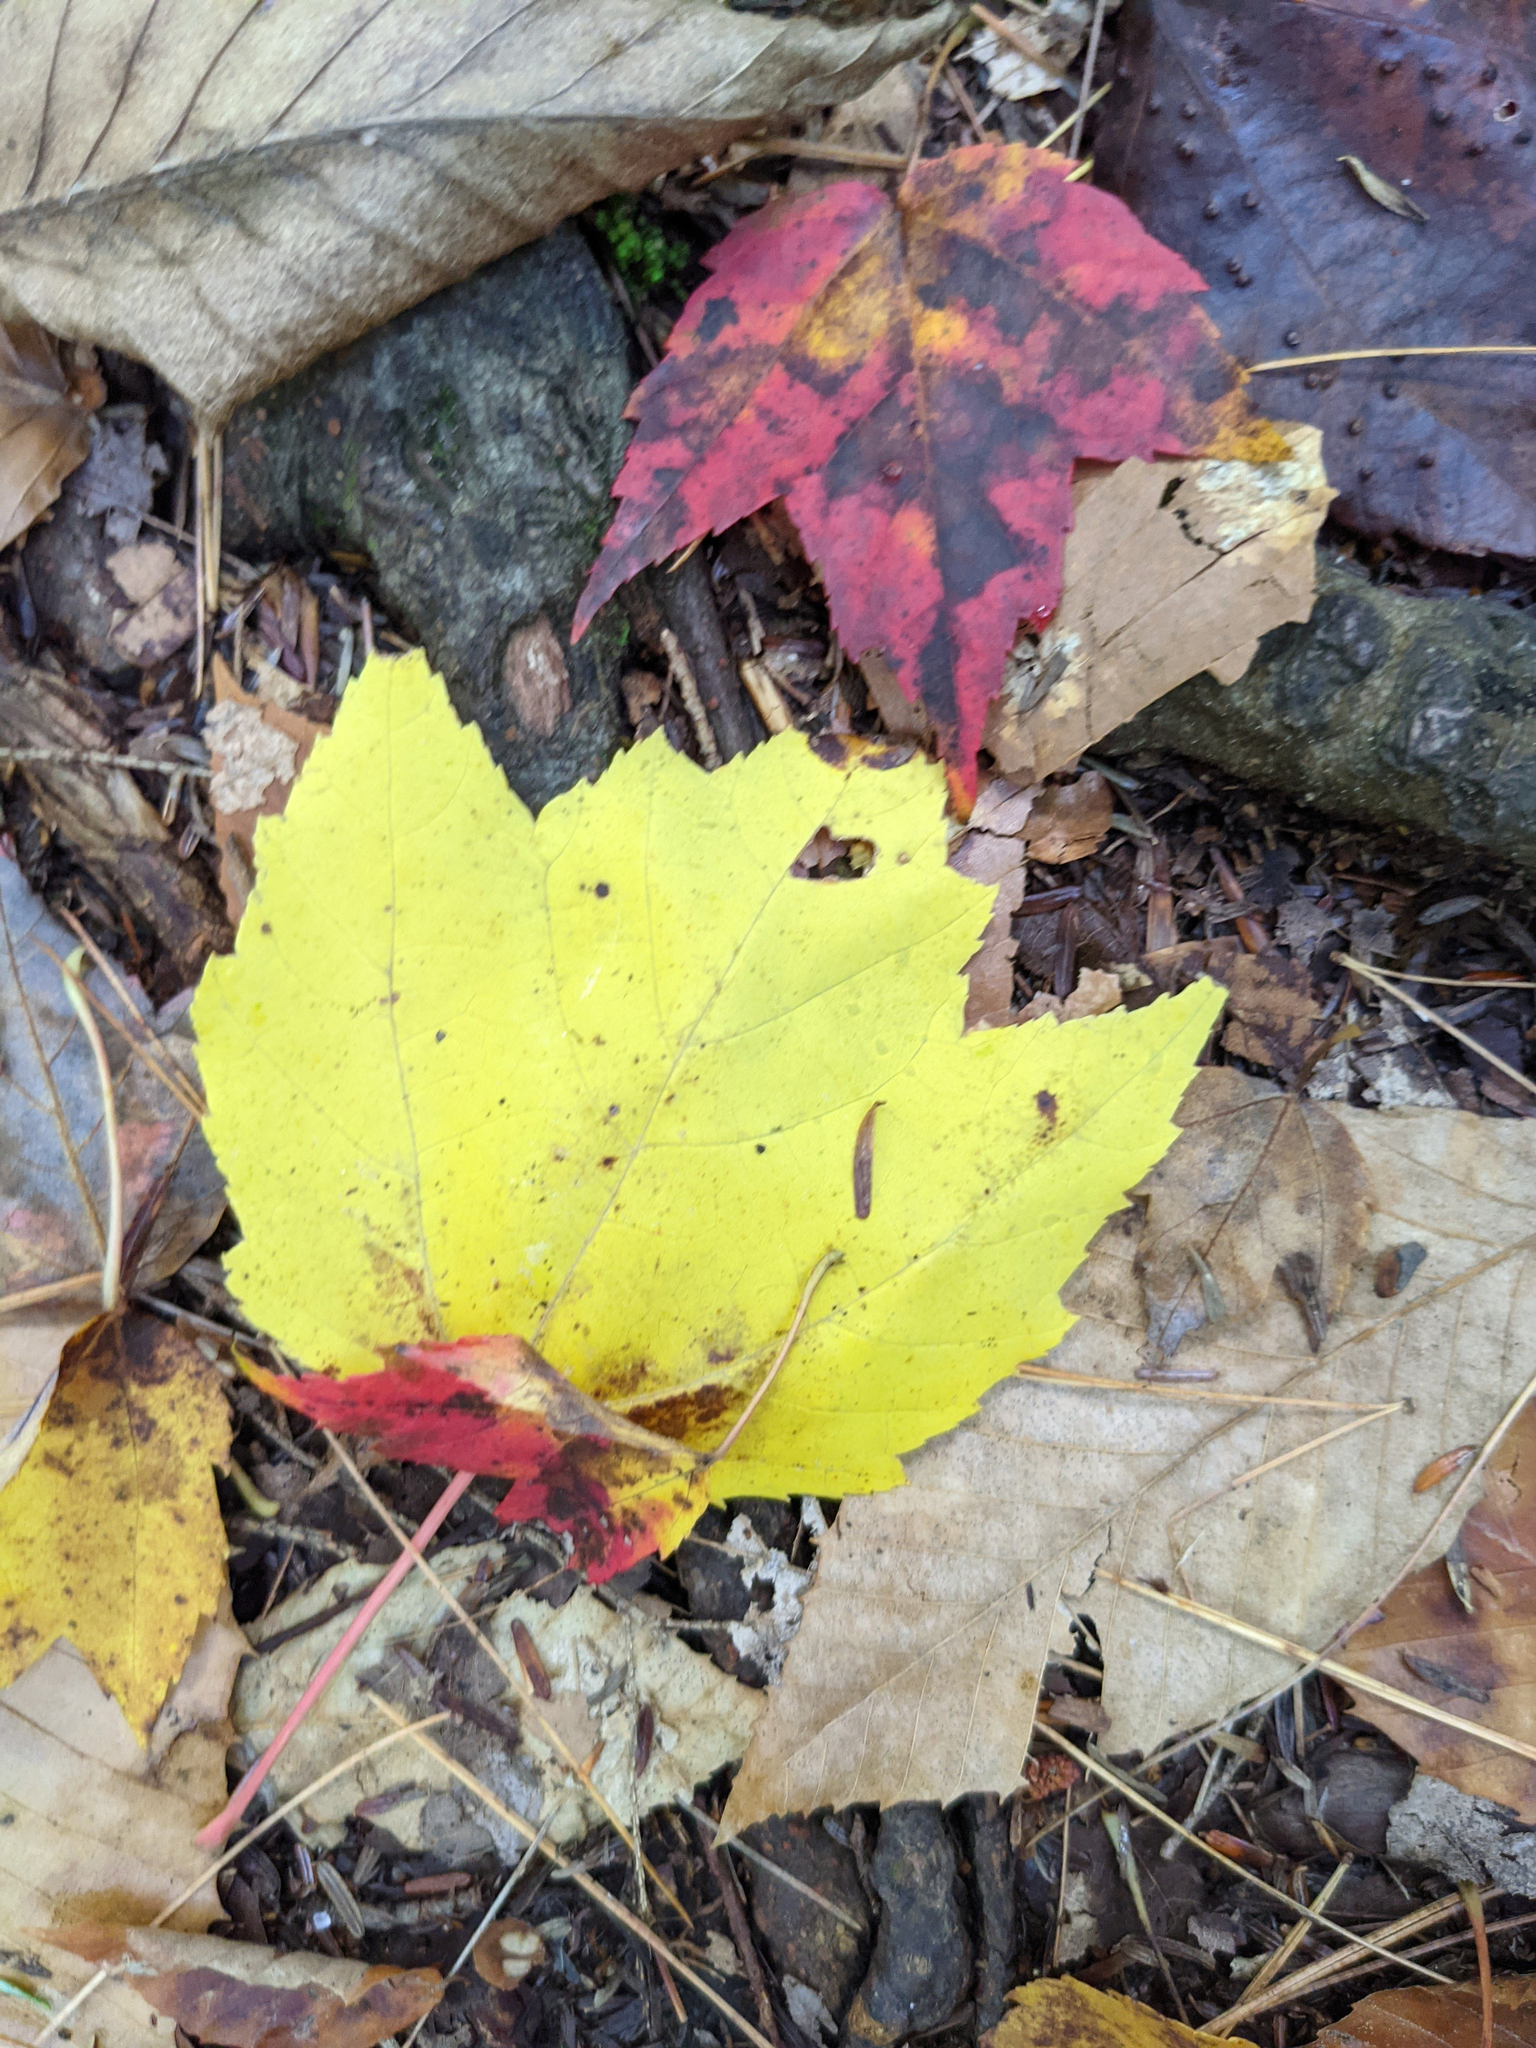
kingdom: Plantae
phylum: Tracheophyta
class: Magnoliopsida
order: Sapindales
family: Sapindaceae
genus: Acer
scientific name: Acer rubrum
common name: Red maple
